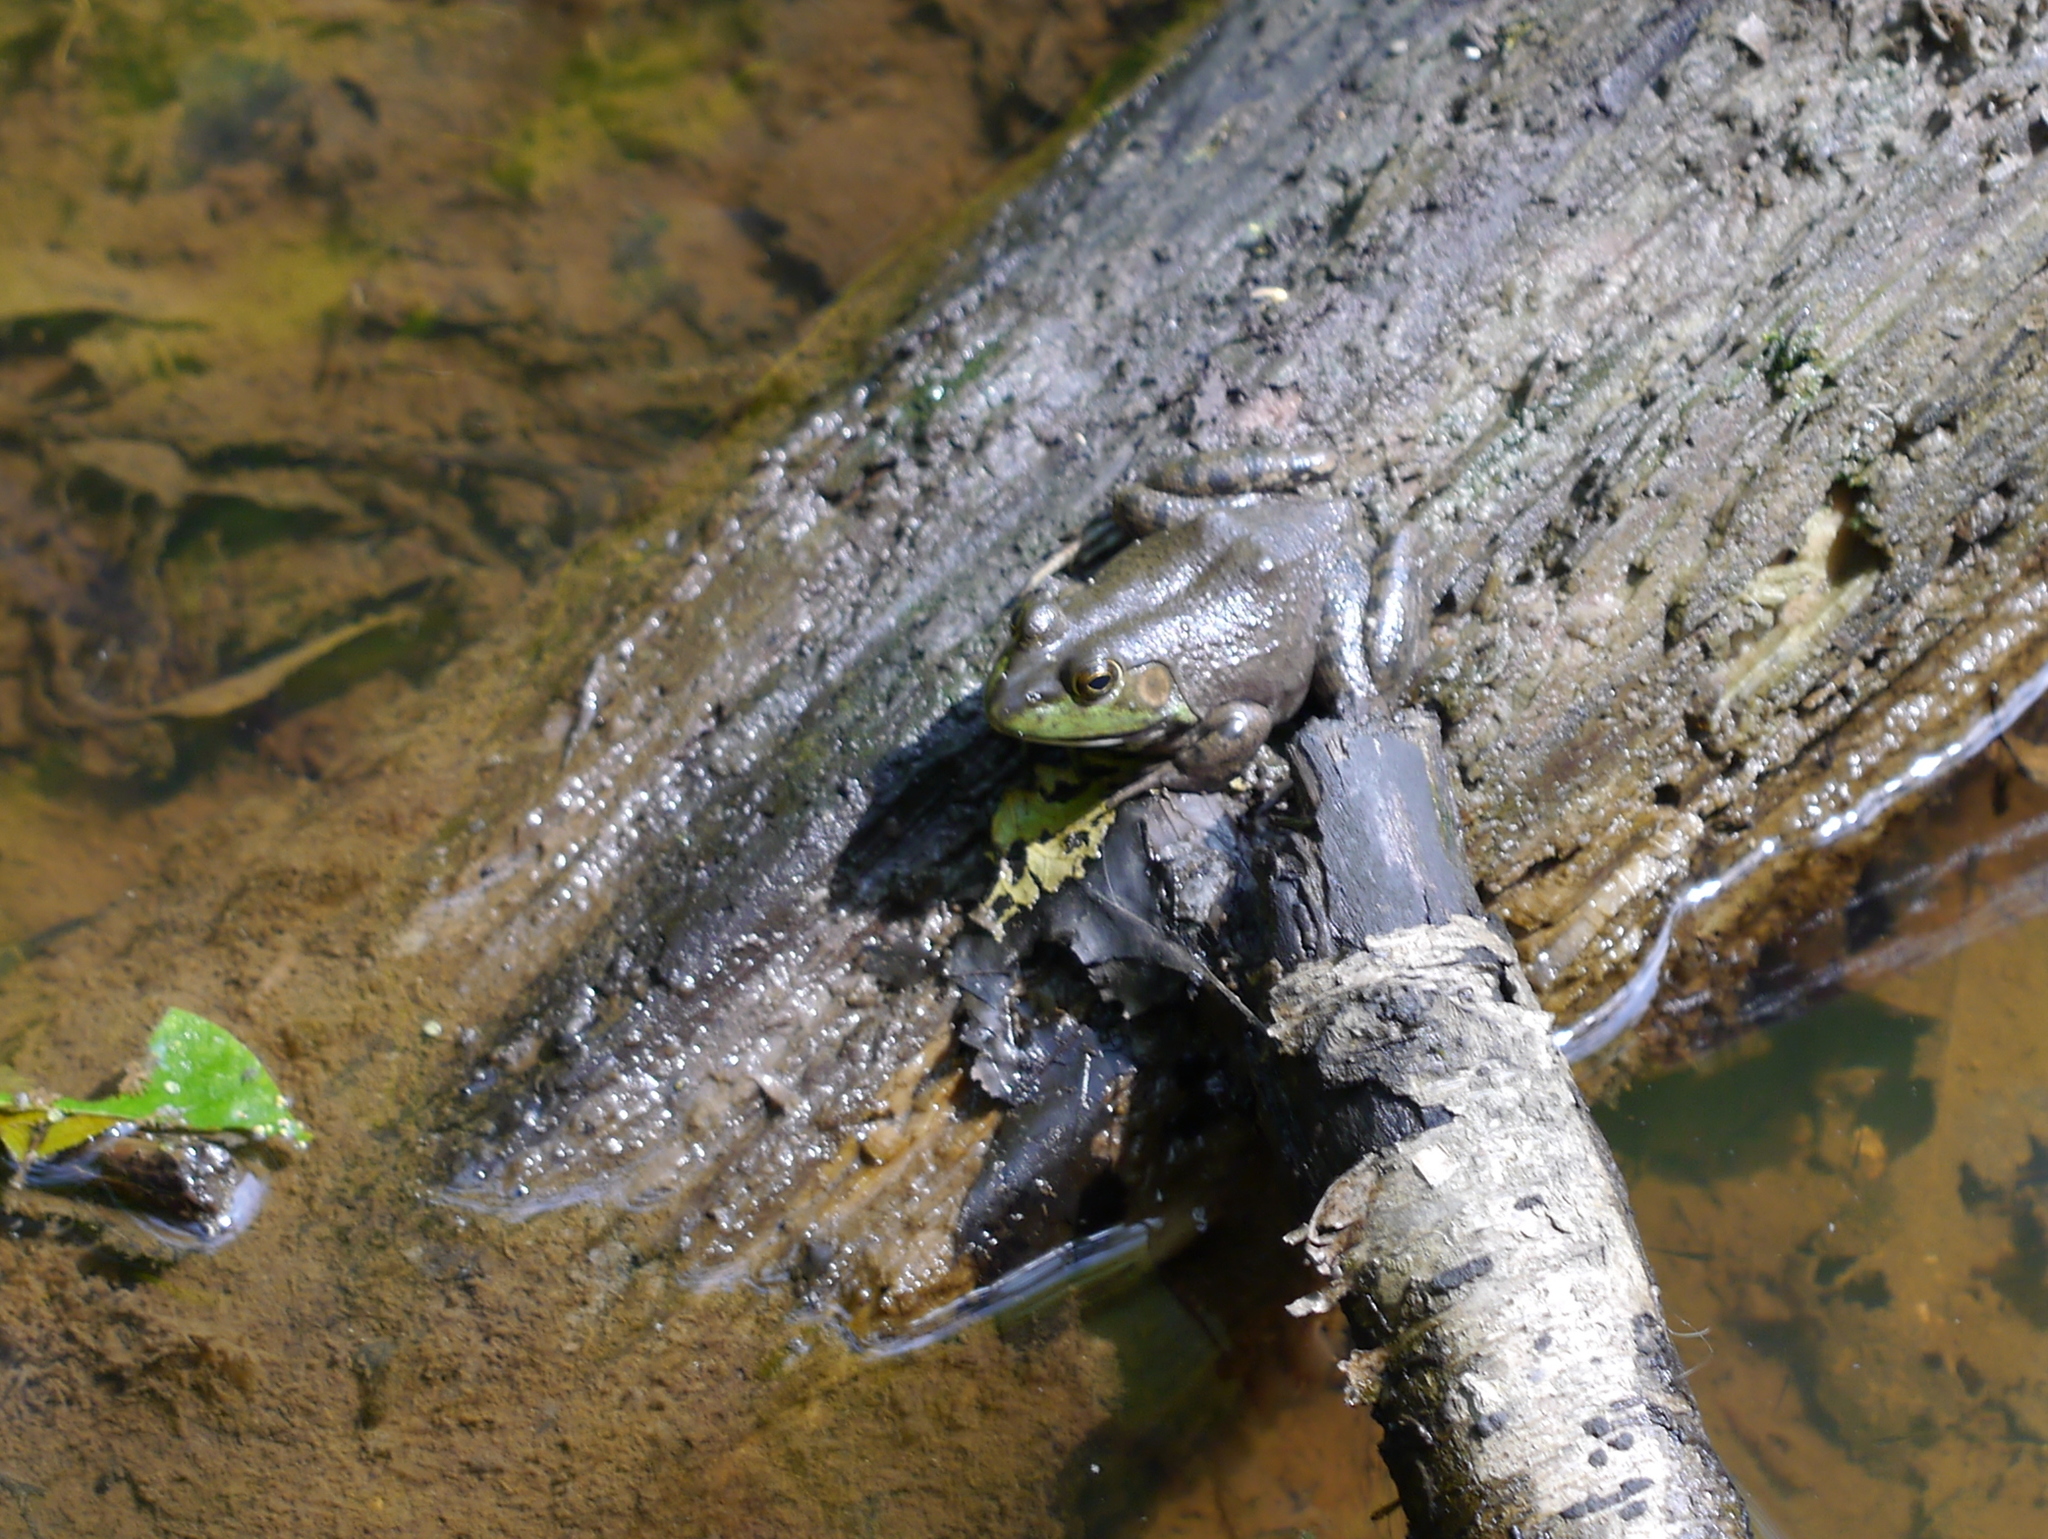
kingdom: Animalia
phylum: Chordata
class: Amphibia
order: Anura
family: Ranidae
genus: Lithobates
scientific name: Lithobates catesbeianus
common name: American bullfrog
